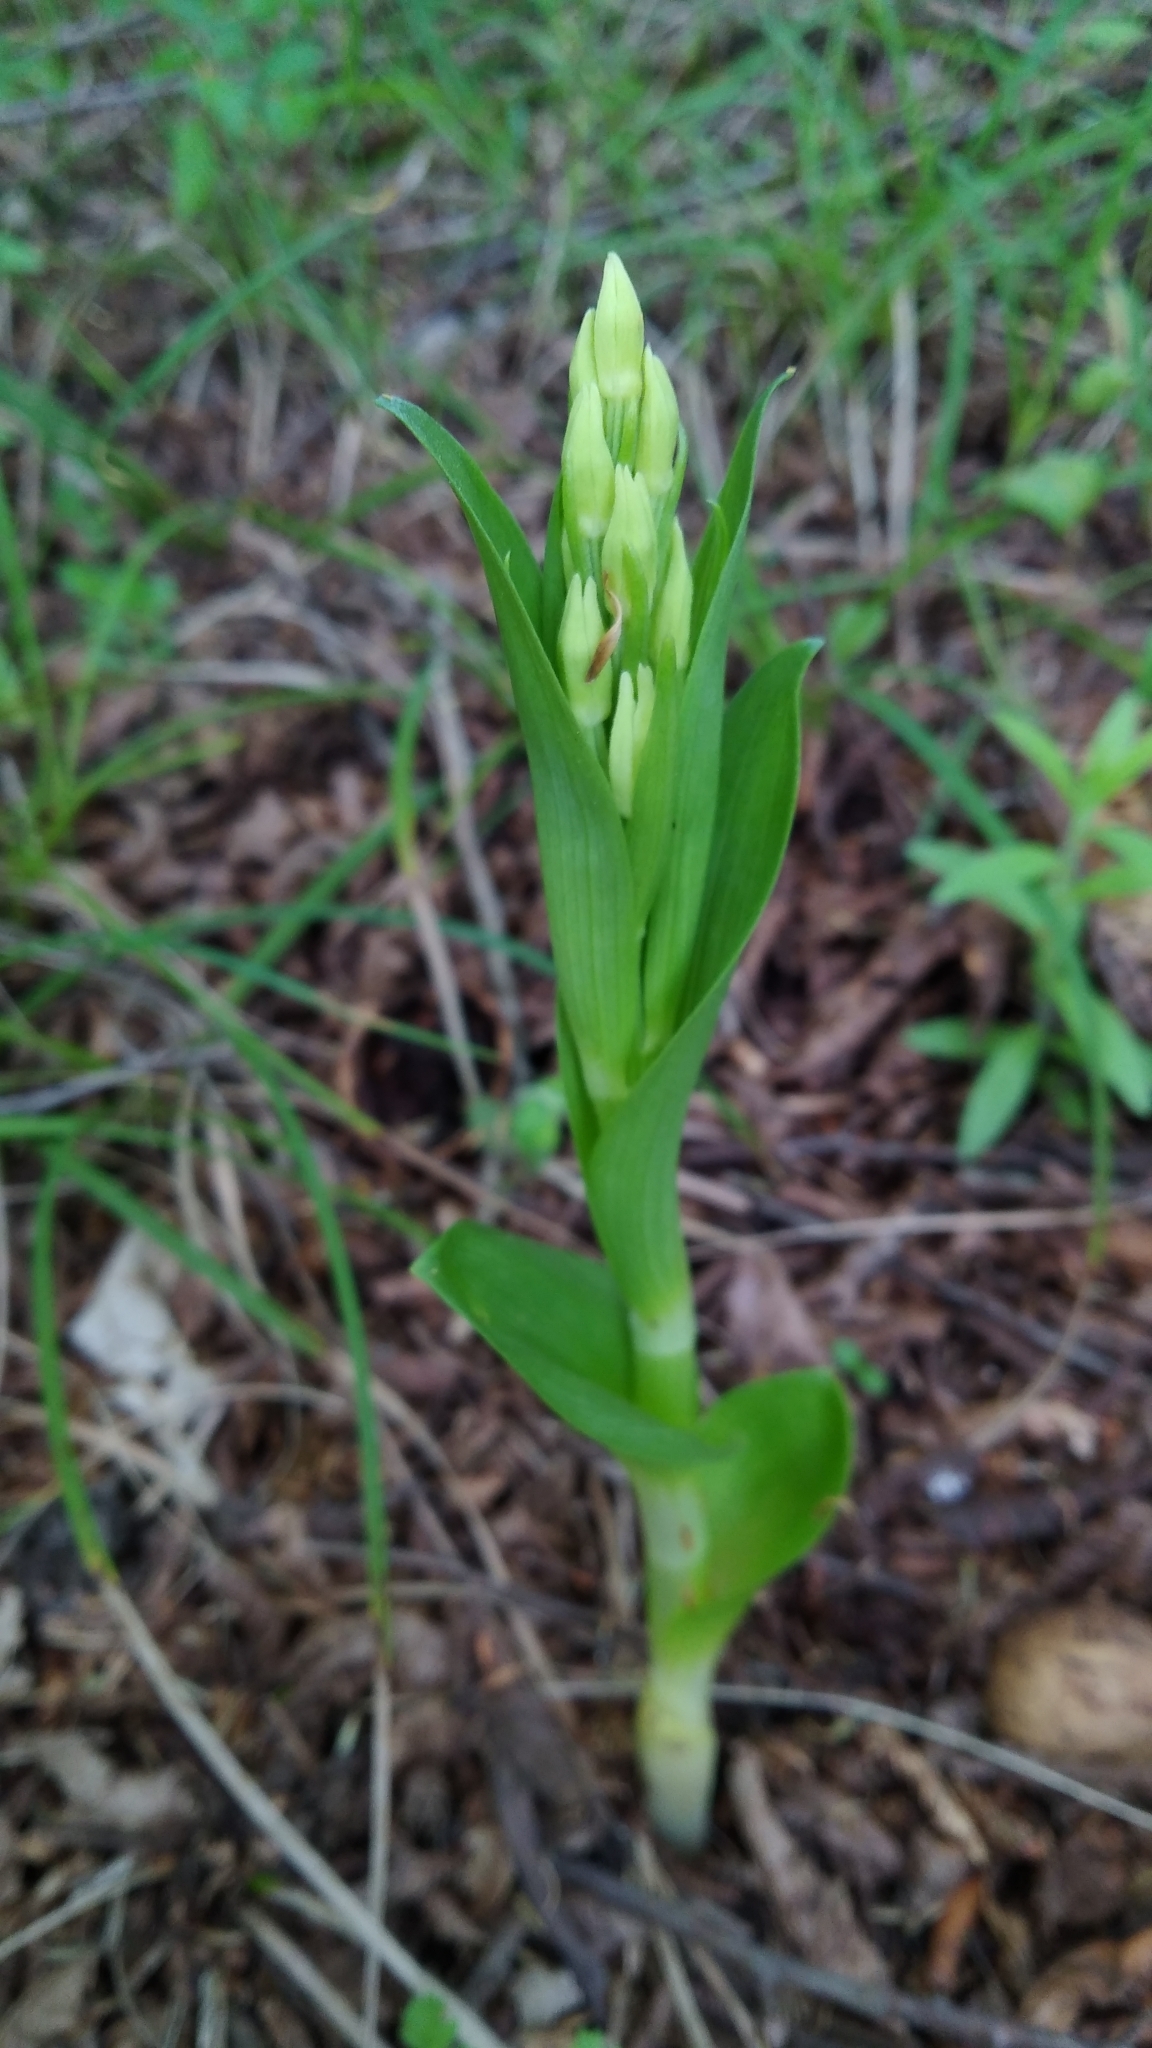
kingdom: Plantae
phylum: Tracheophyta
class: Liliopsida
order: Asparagales
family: Orchidaceae
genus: Cephalanthera
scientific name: Cephalanthera damasonium
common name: White helleborine
